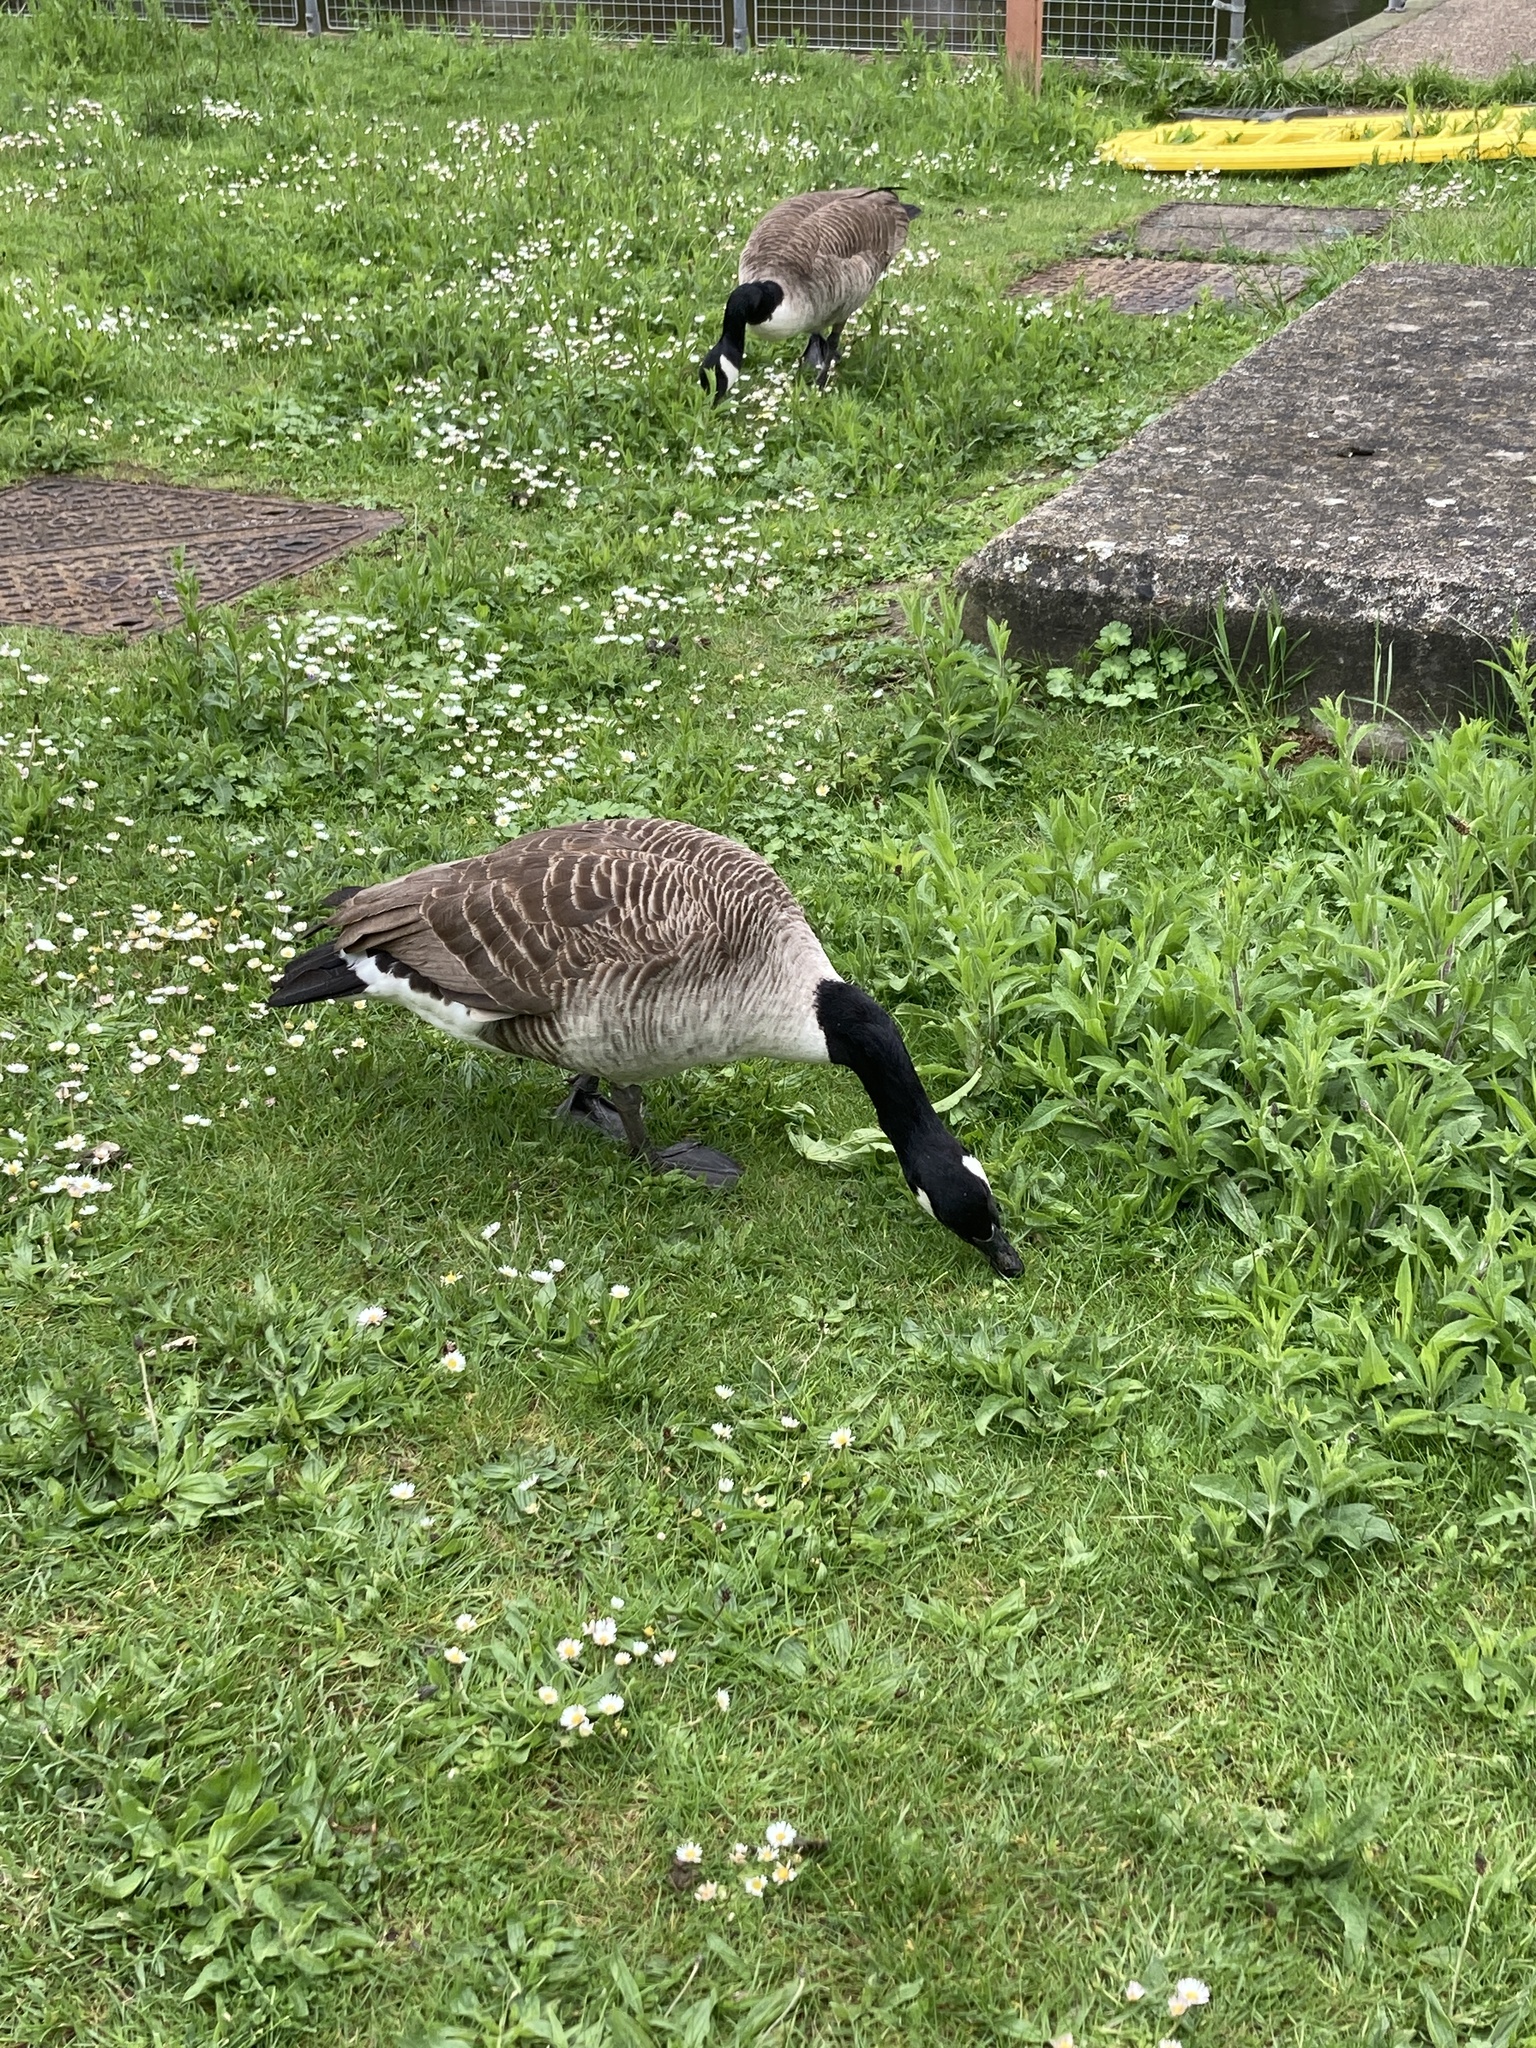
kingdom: Animalia
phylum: Chordata
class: Aves
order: Anseriformes
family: Anatidae
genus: Branta
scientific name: Branta canadensis
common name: Canada goose
